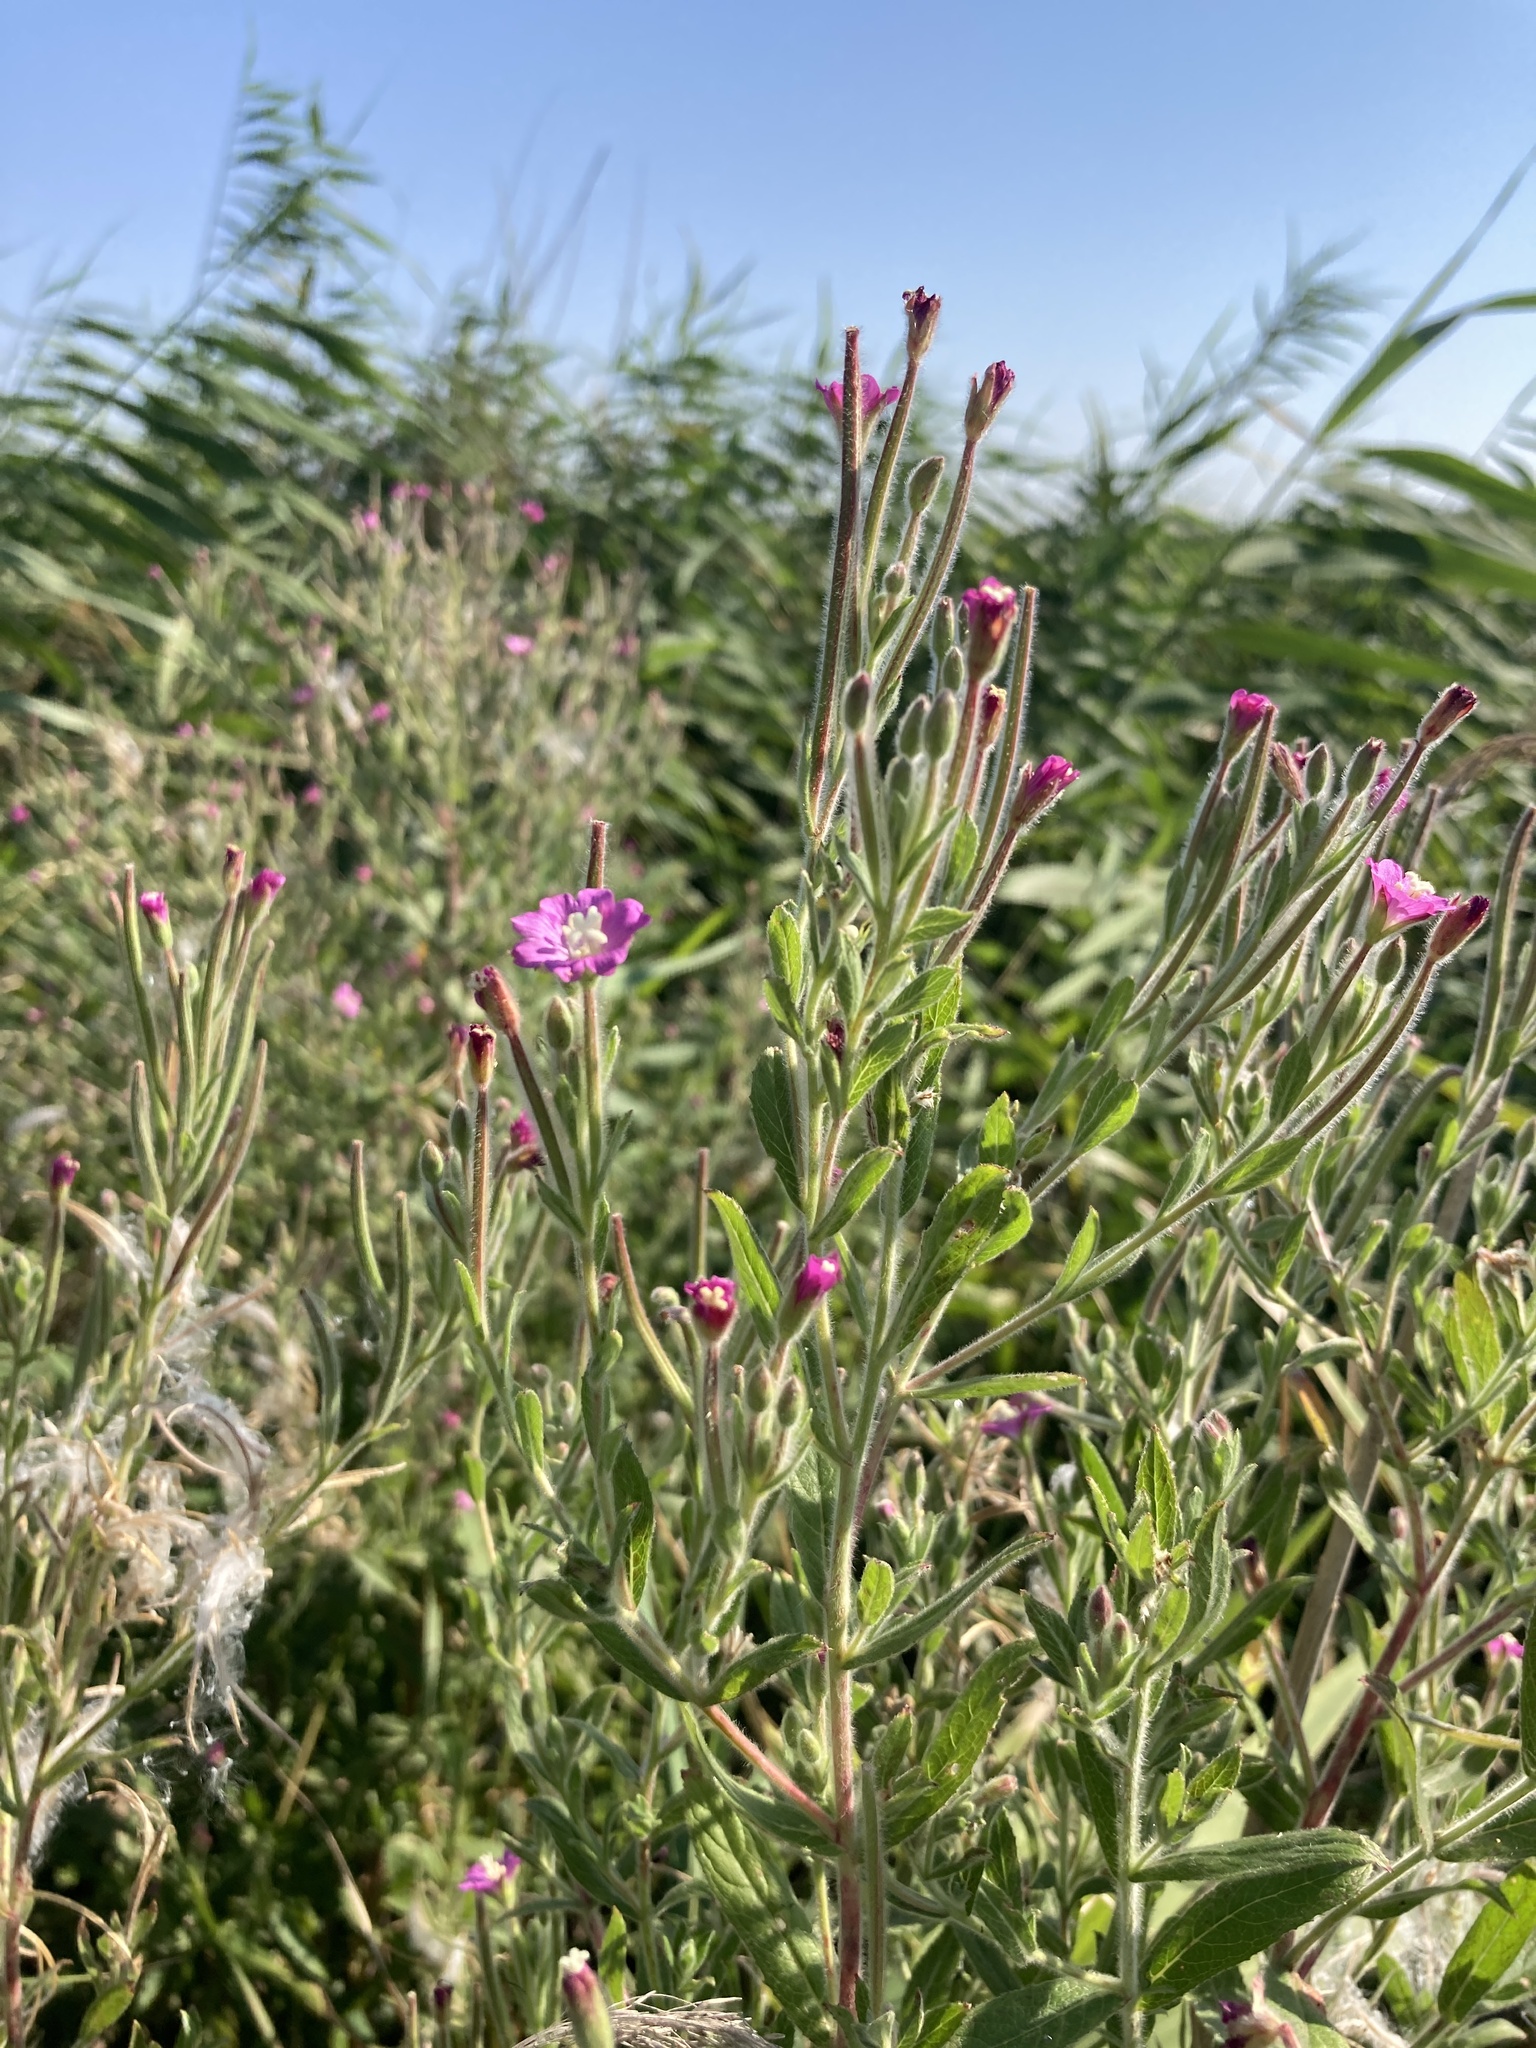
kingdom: Plantae
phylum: Tracheophyta
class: Magnoliopsida
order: Myrtales
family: Onagraceae
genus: Epilobium
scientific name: Epilobium hirsutum
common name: Great willowherb
